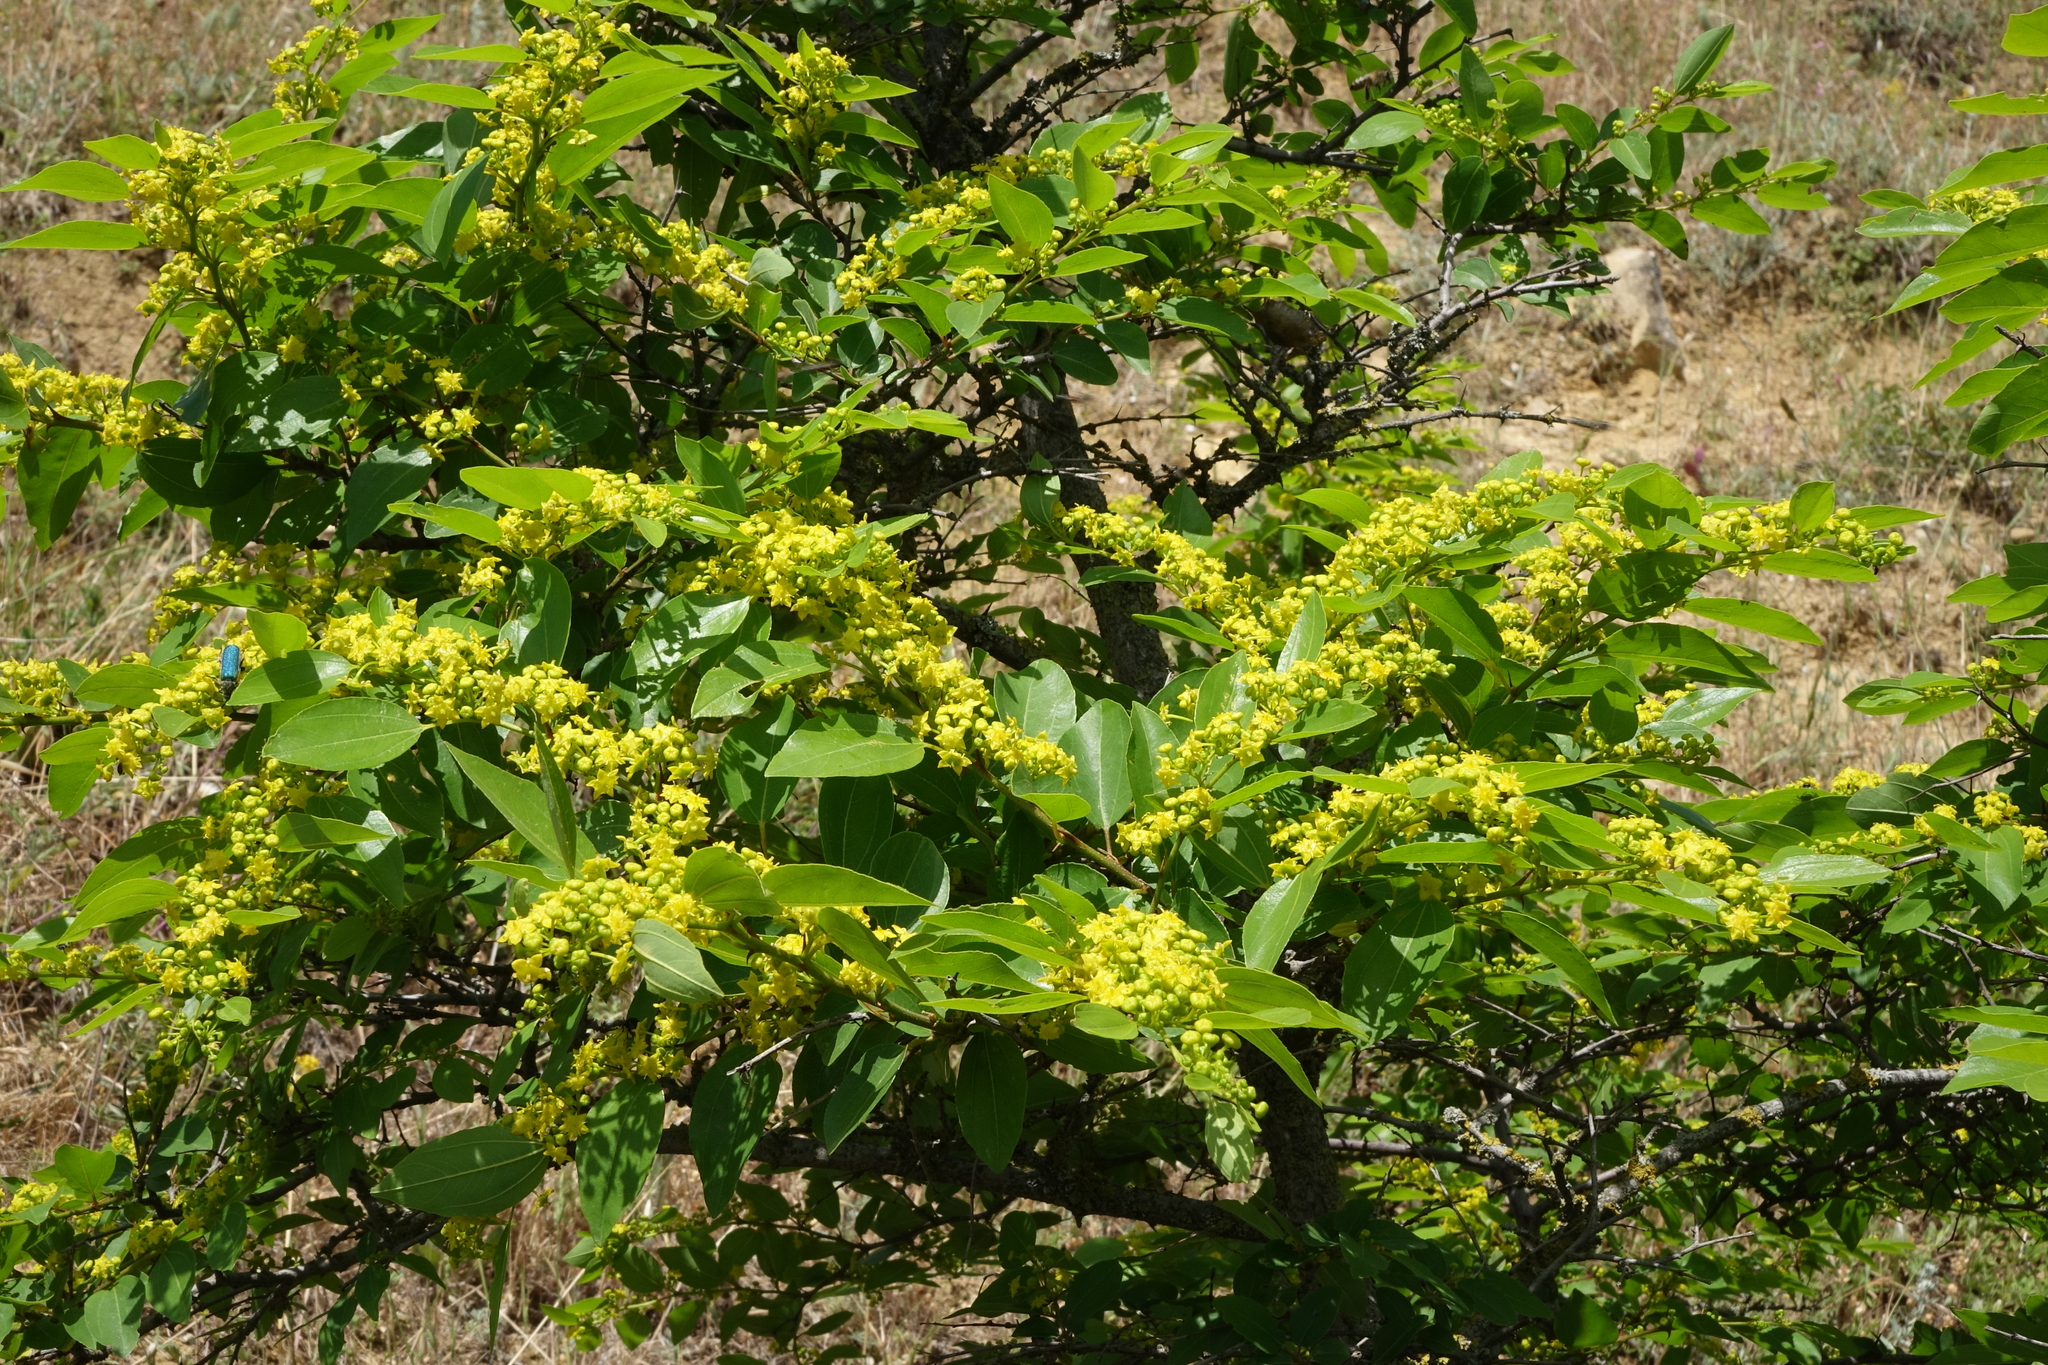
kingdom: Plantae
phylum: Tracheophyta
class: Magnoliopsida
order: Rosales
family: Rhamnaceae
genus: Paliurus
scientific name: Paliurus spina-christi
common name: Jeruselem thorn
